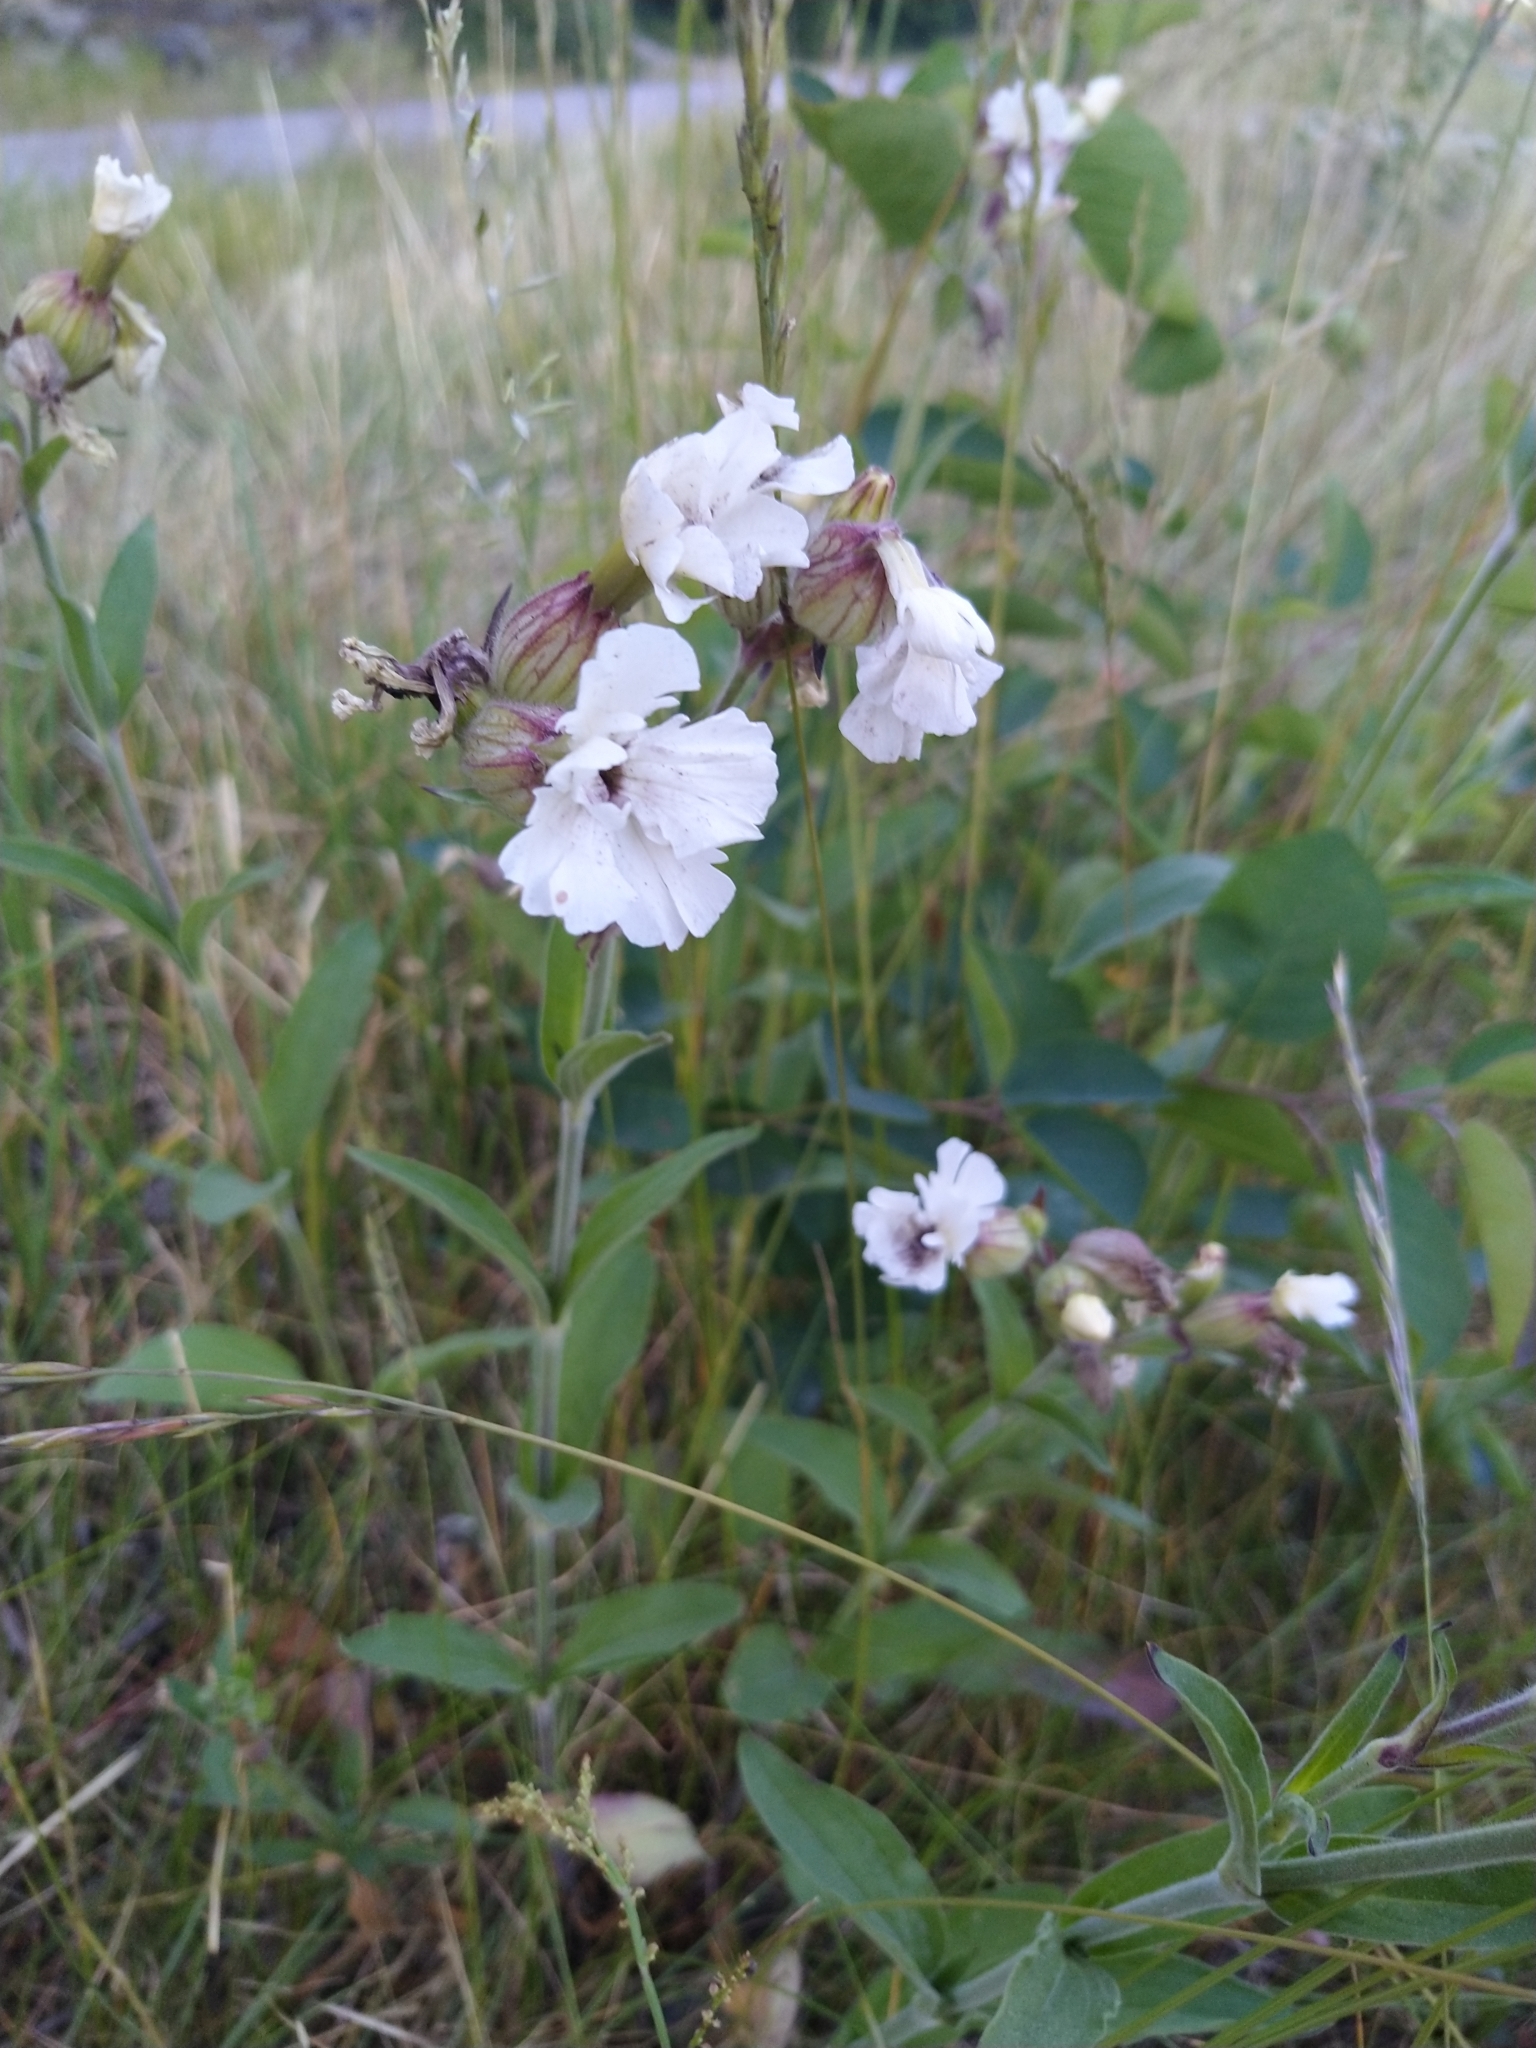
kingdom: Plantae
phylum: Tracheophyta
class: Magnoliopsida
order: Caryophyllales
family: Caryophyllaceae
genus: Silene
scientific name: Silene latifolia
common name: White campion
